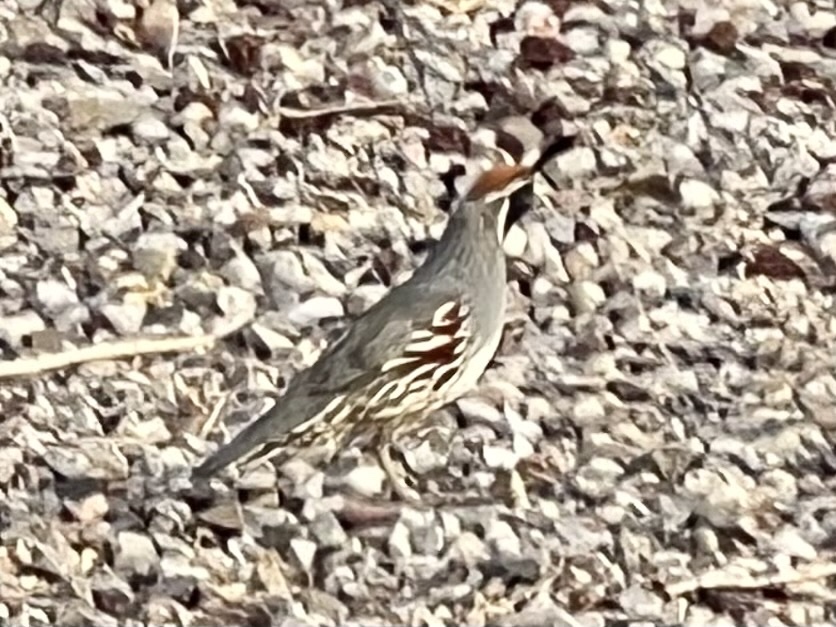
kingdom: Animalia
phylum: Chordata
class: Aves
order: Galliformes
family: Odontophoridae
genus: Callipepla
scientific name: Callipepla gambelii
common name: Gambel's quail
